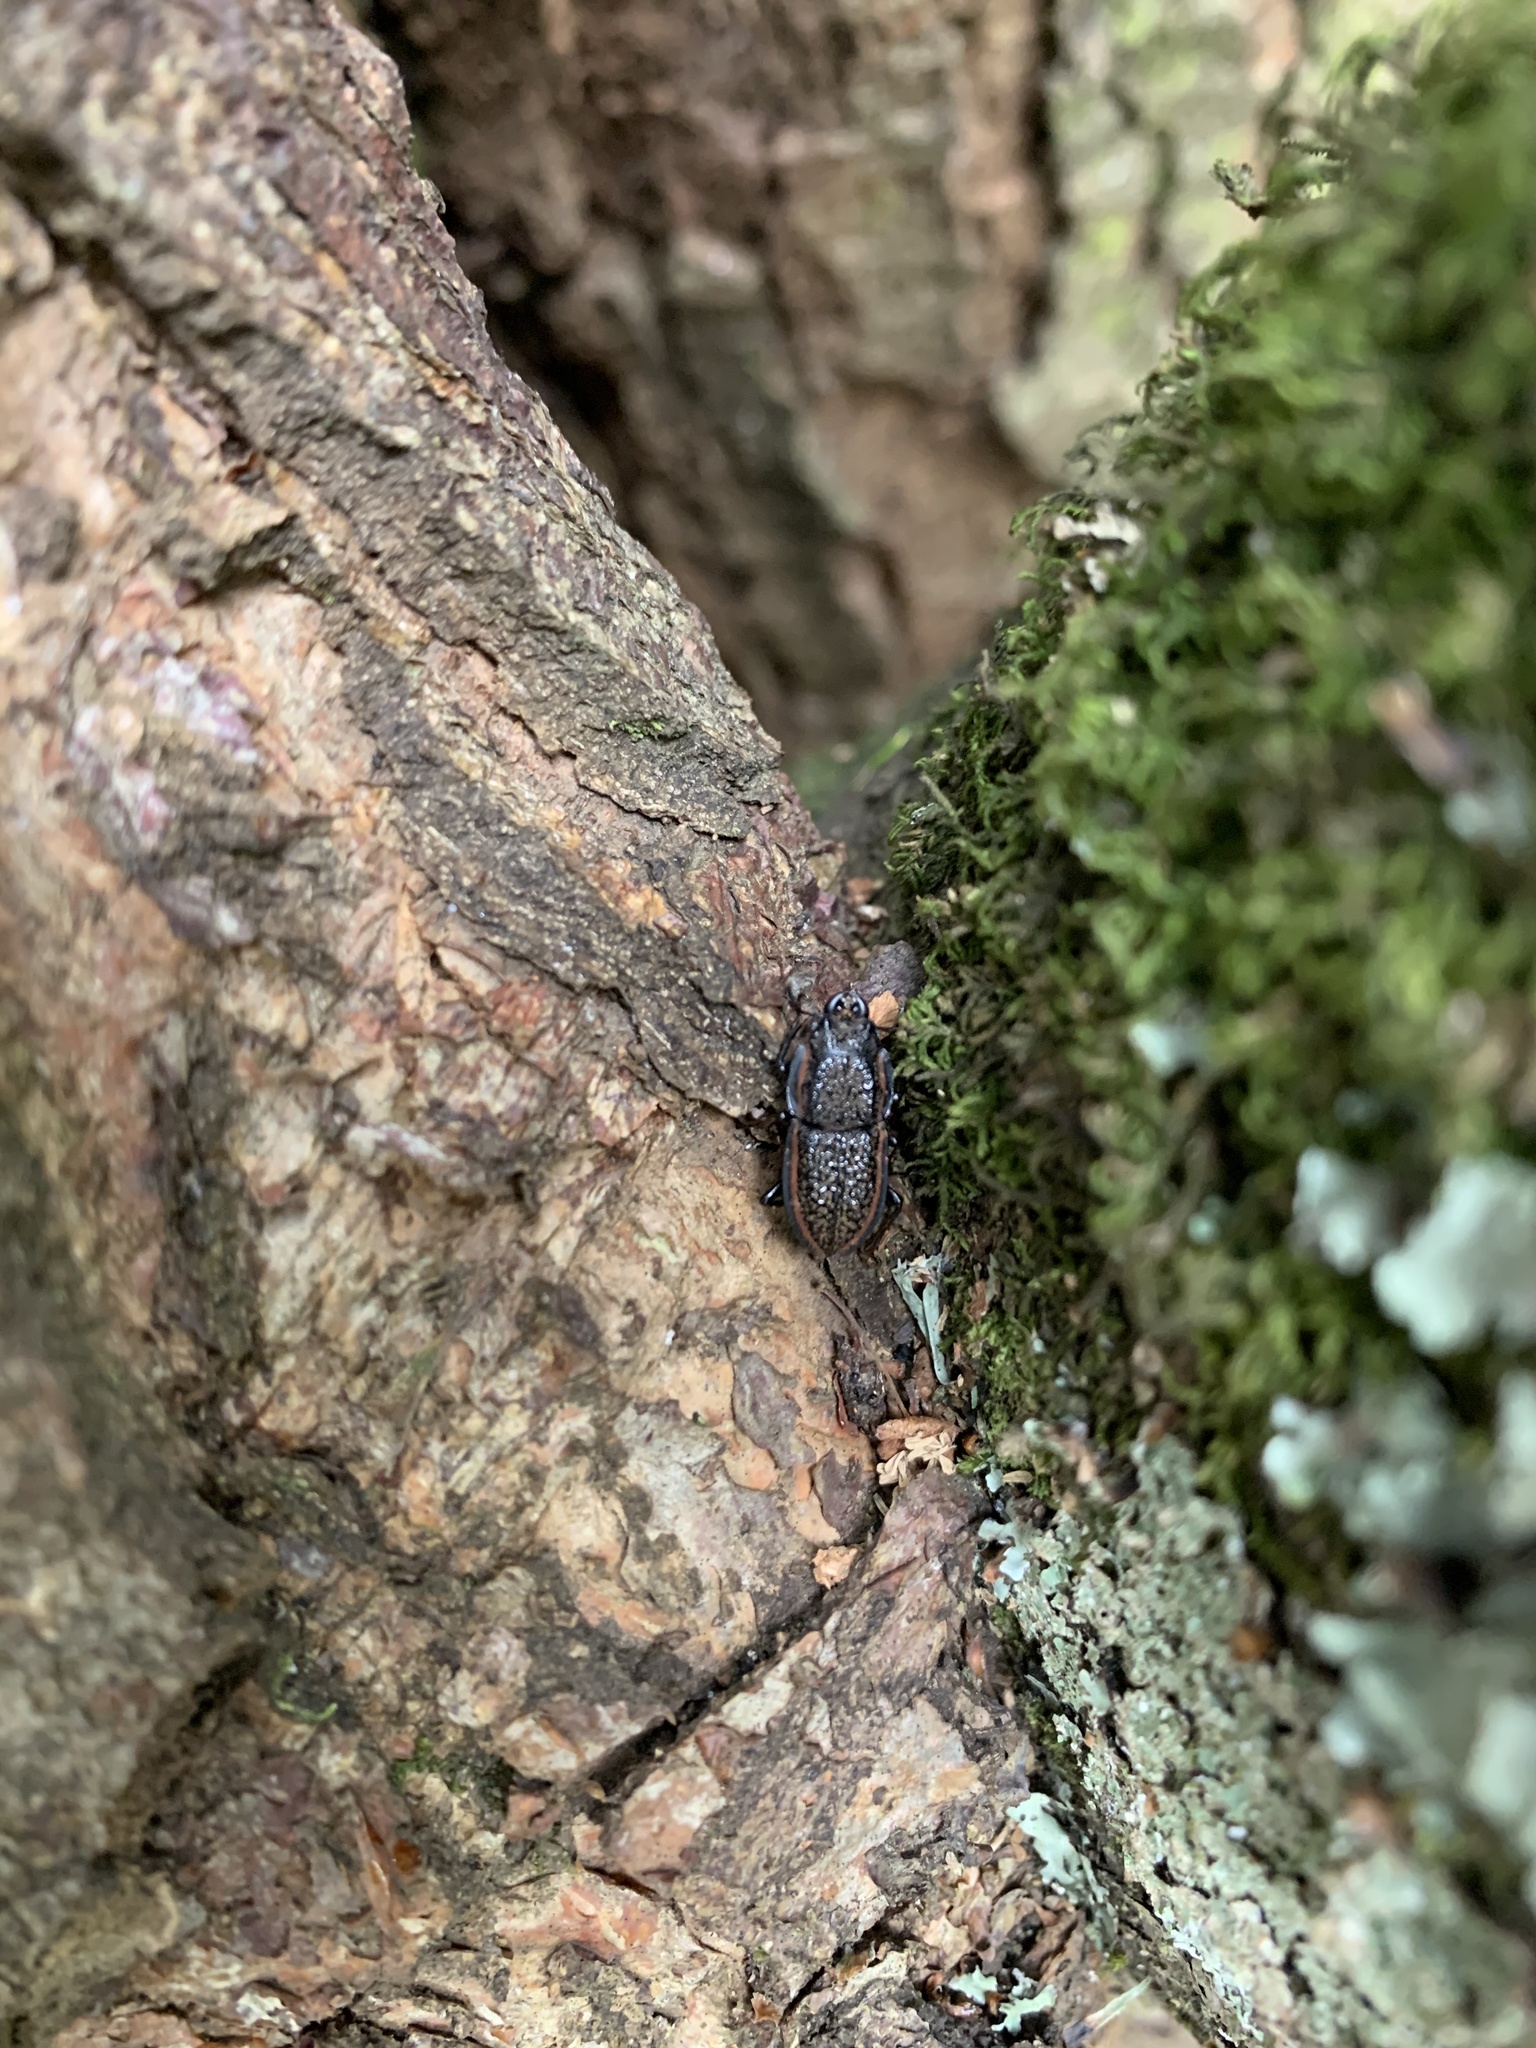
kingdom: Animalia
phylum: Arthropoda
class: Insecta
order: Coleoptera
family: Lucanidae
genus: Erichius
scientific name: Erichius caelatus
